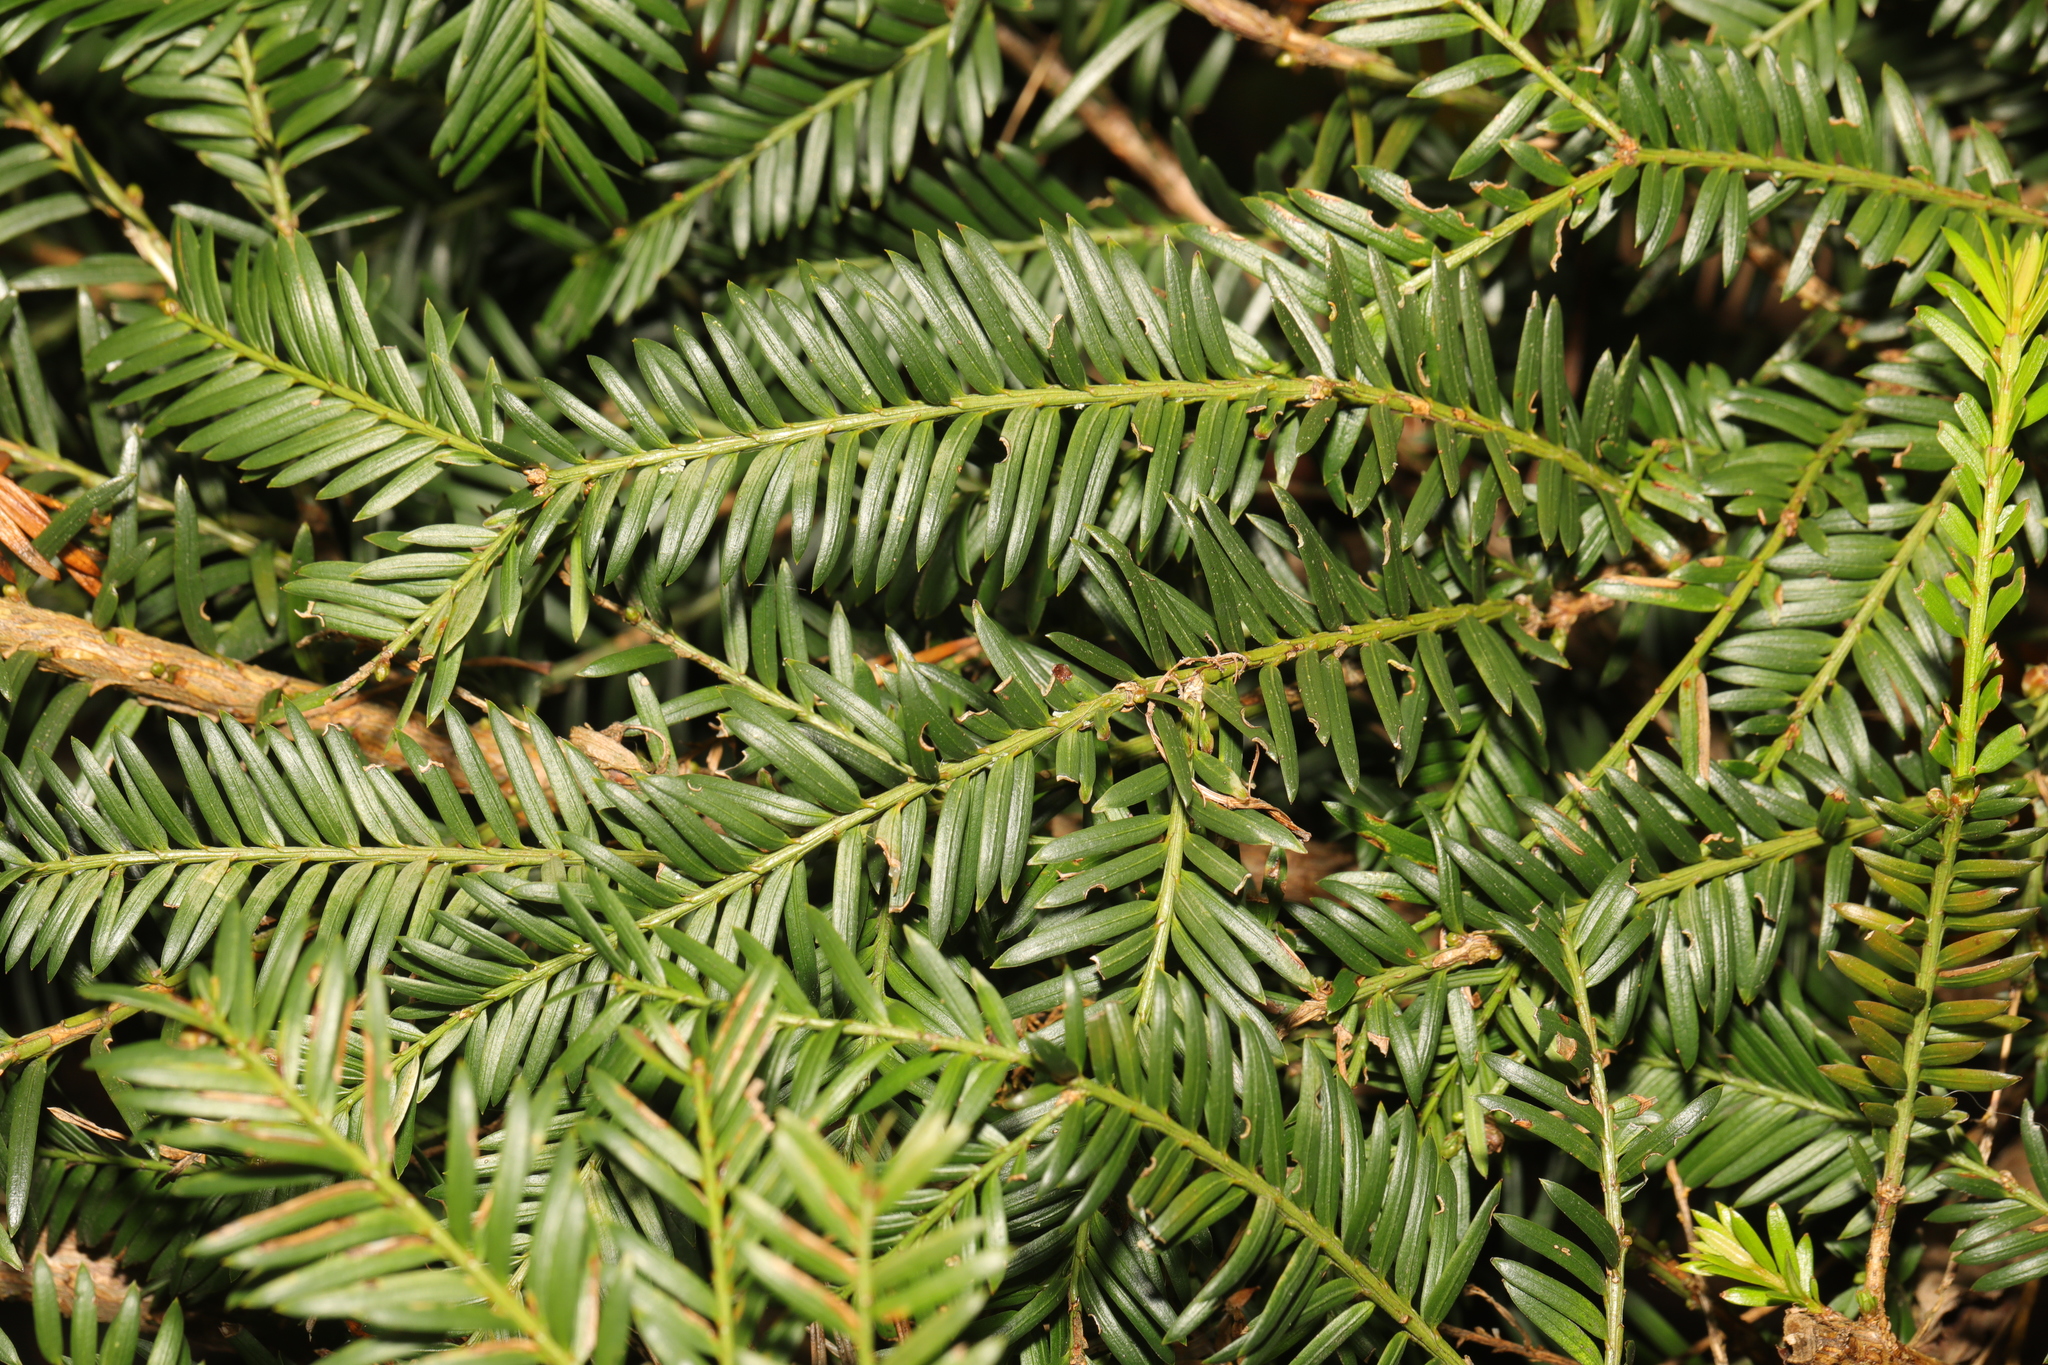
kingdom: Plantae
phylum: Tracheophyta
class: Pinopsida
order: Pinales
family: Taxaceae
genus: Taxus
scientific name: Taxus baccata
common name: Yew
